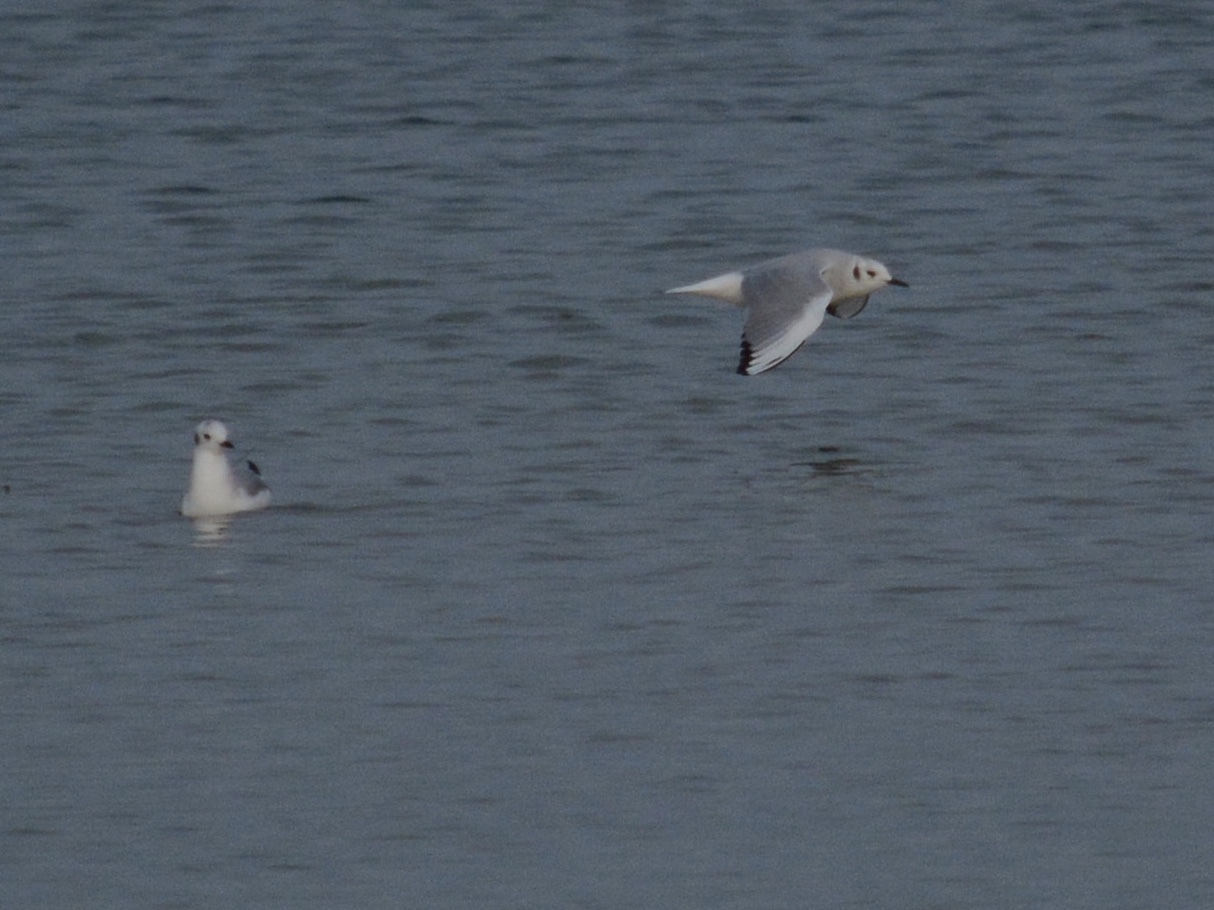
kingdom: Animalia
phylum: Chordata
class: Aves
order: Charadriiformes
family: Laridae
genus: Chroicocephalus
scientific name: Chroicocephalus philadelphia
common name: Bonaparte's gull
